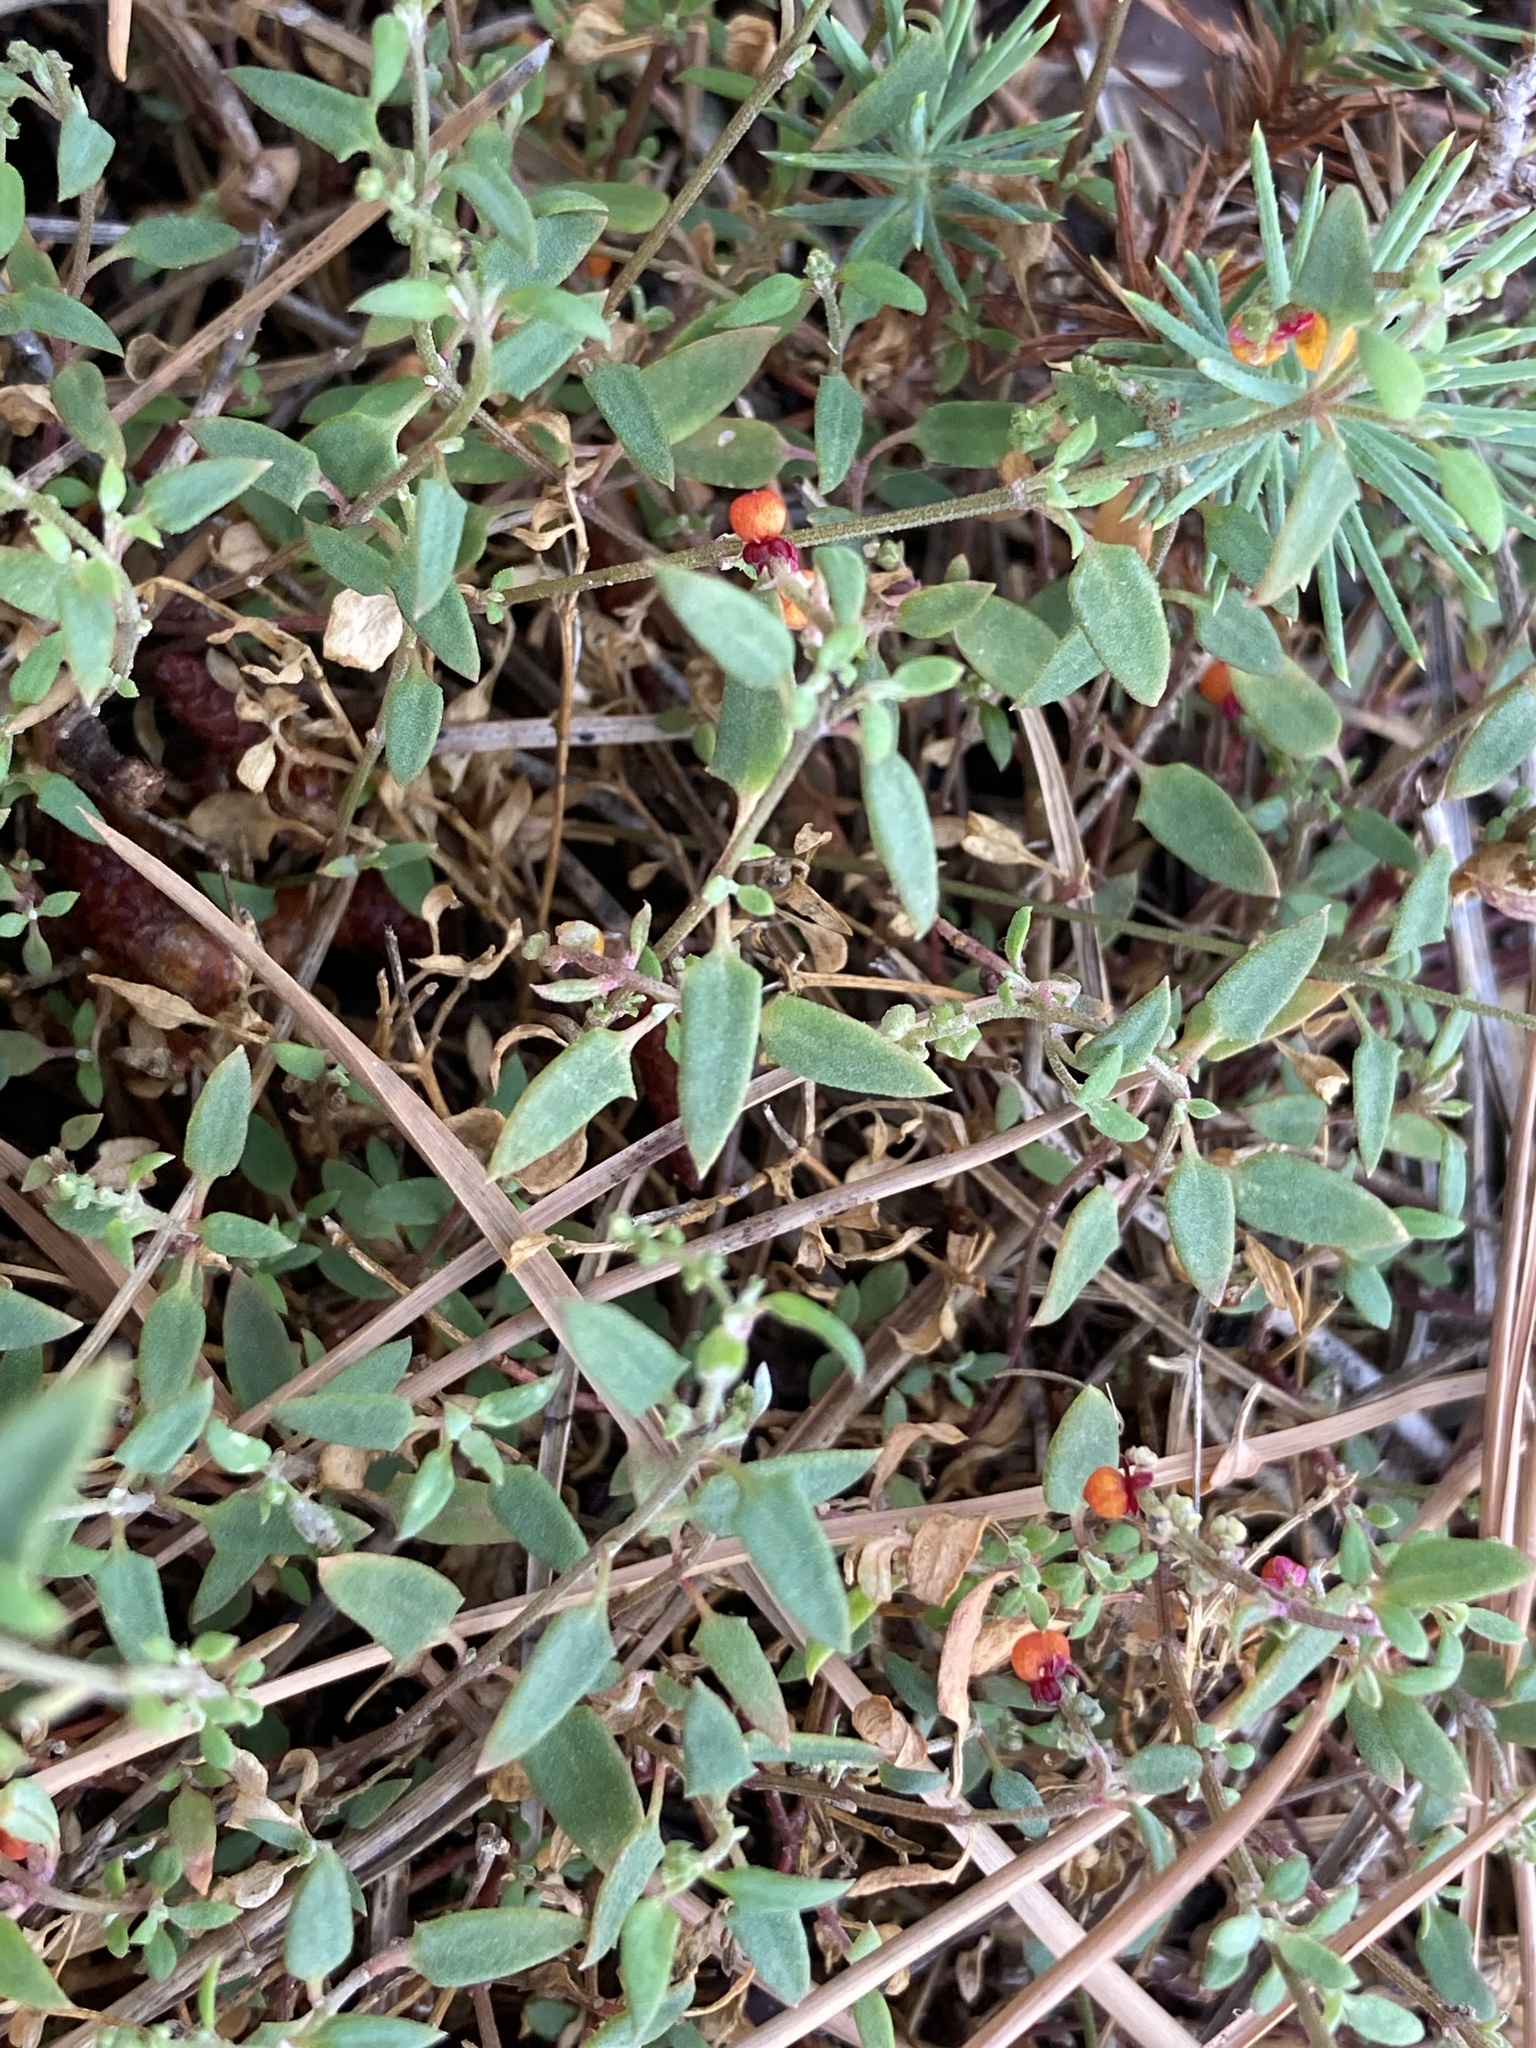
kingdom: Plantae
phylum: Tracheophyta
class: Magnoliopsida
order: Caryophyllales
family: Amaranthaceae
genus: Chenopodium
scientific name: Chenopodium nutans
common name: Climbing-saltbush
